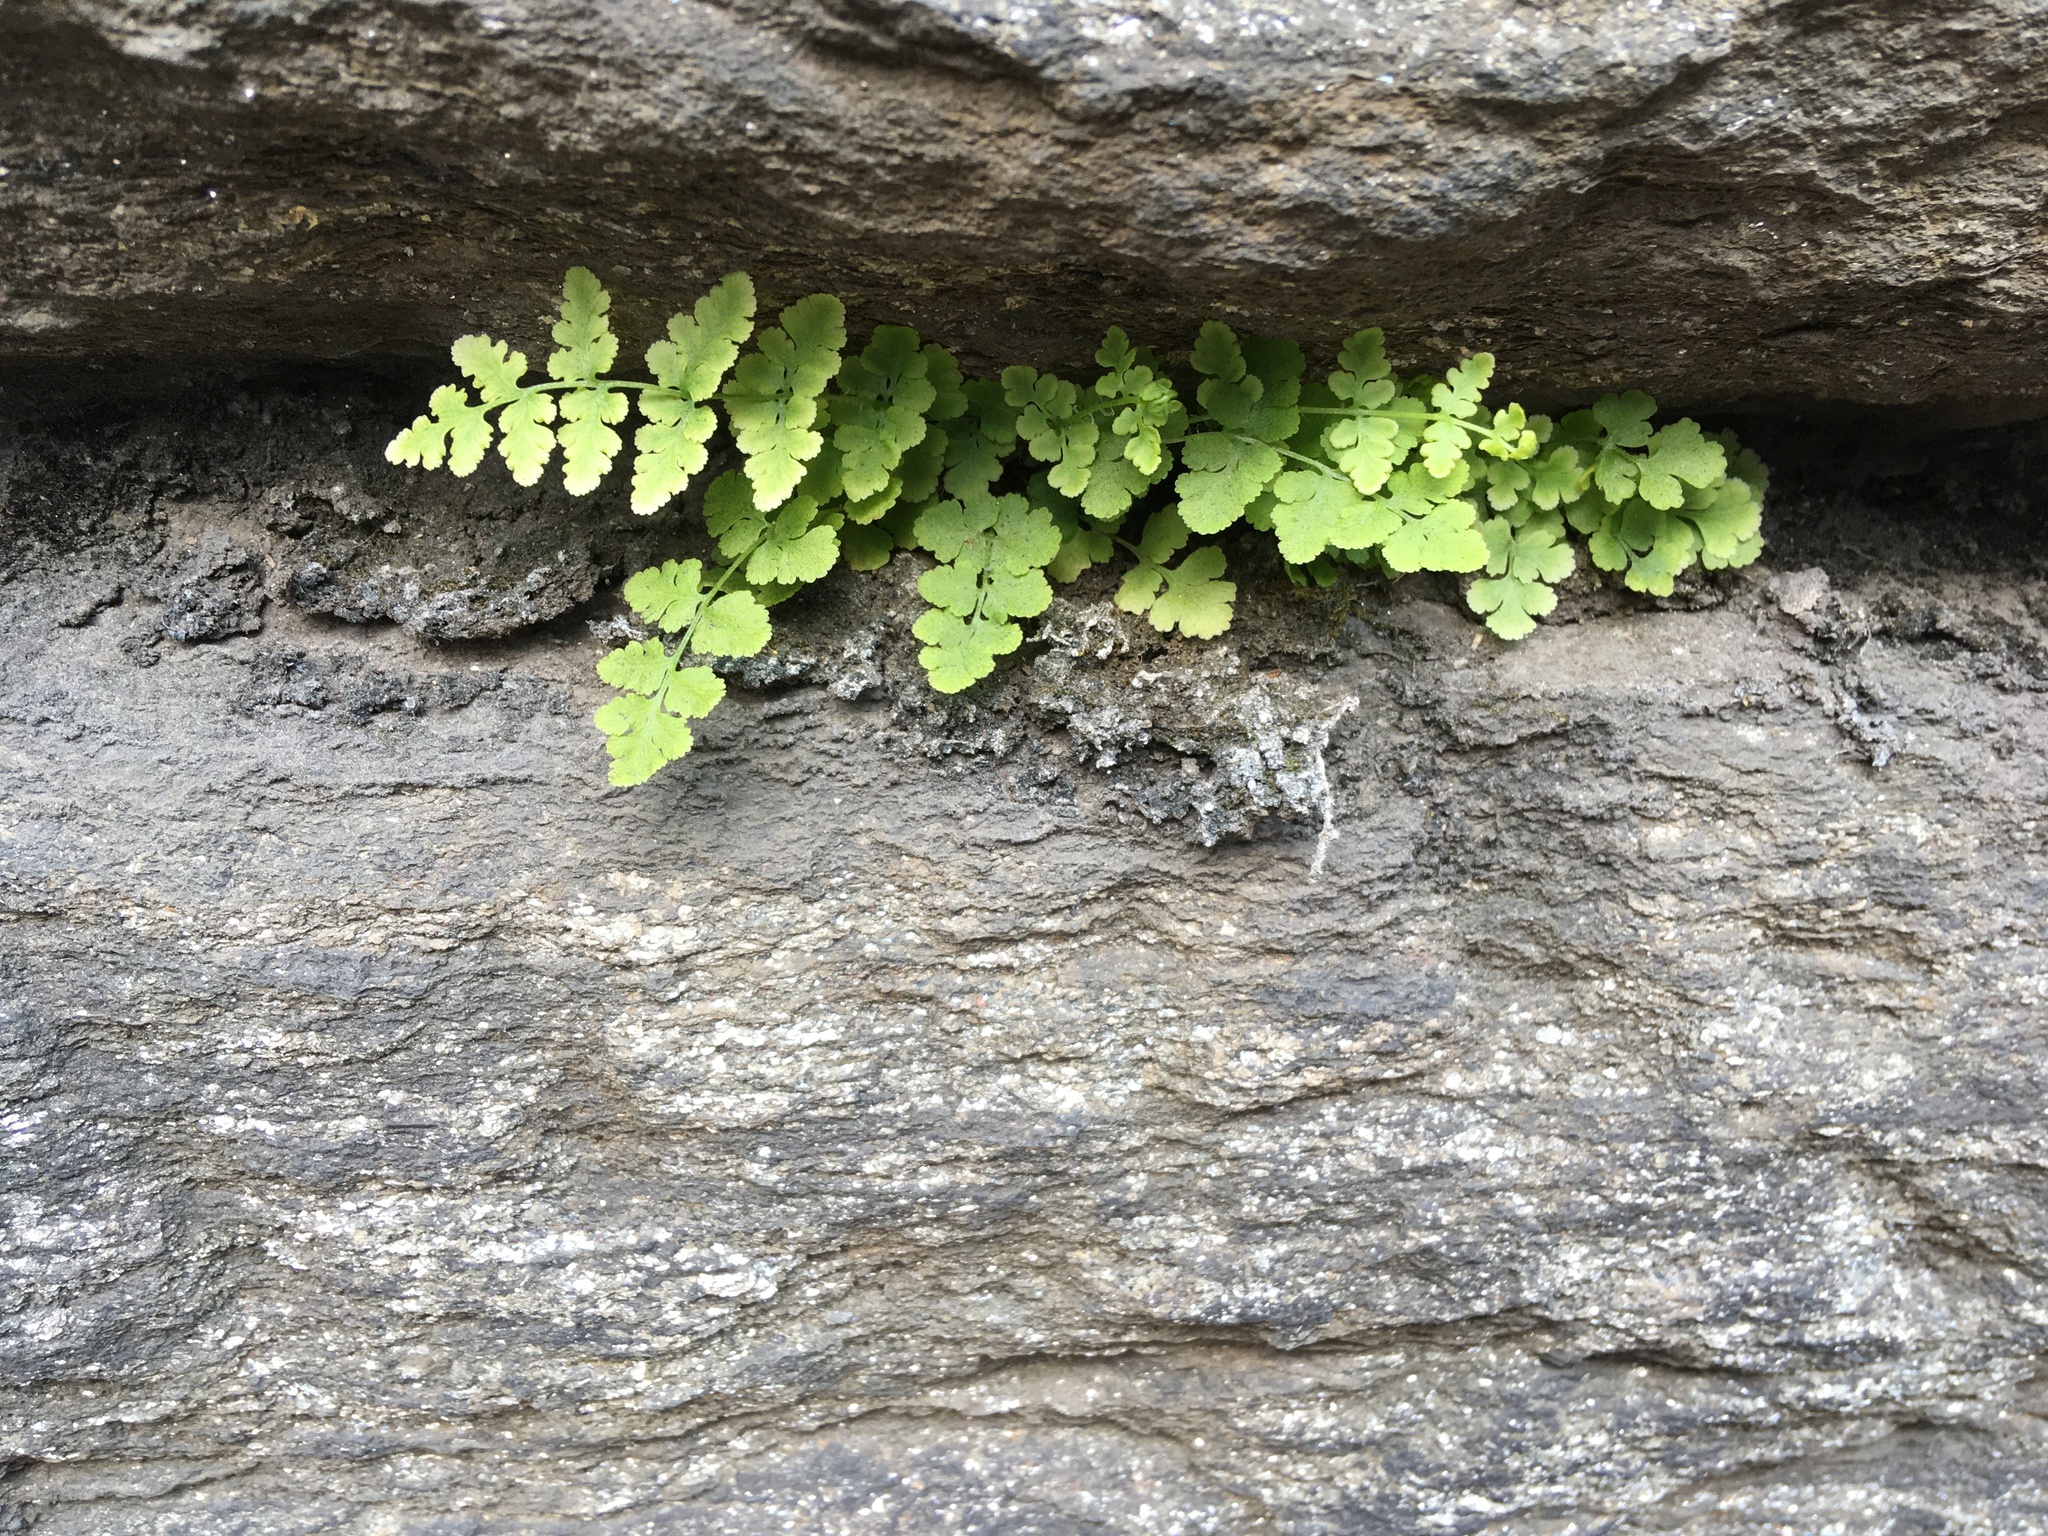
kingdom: Plantae
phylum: Tracheophyta
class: Polypodiopsida
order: Polypodiales
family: Woodsiaceae
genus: Physematium
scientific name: Physematium obtusum
